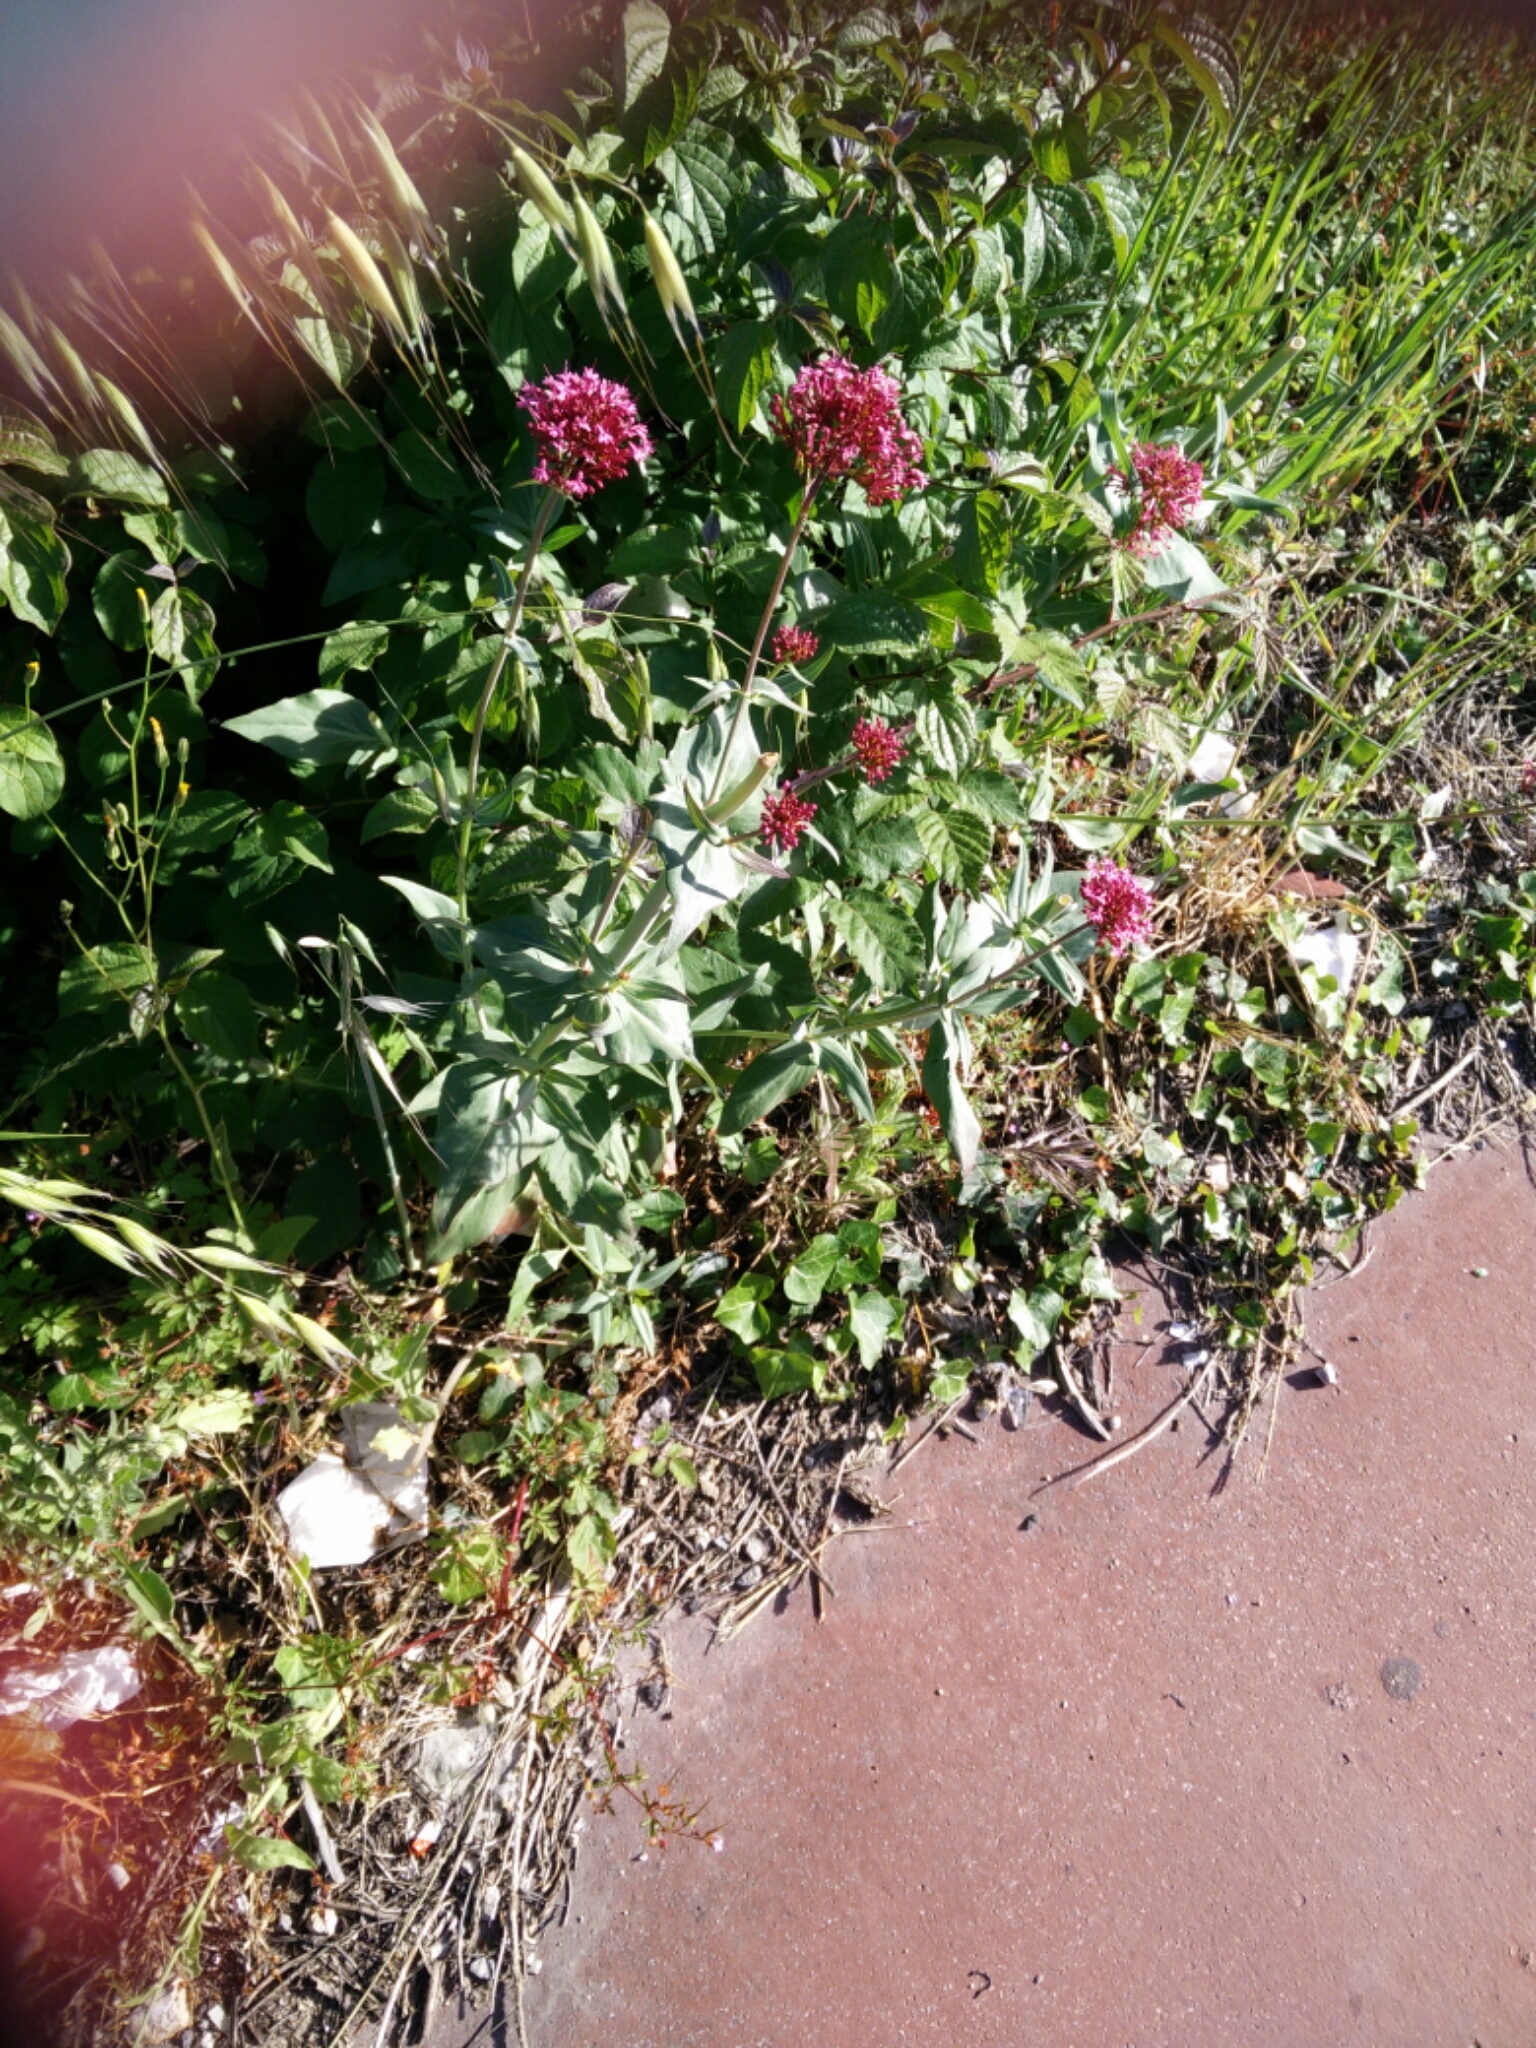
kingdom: Plantae
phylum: Tracheophyta
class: Magnoliopsida
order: Dipsacales
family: Caprifoliaceae
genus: Centranthus
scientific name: Centranthus ruber
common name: Red valerian
